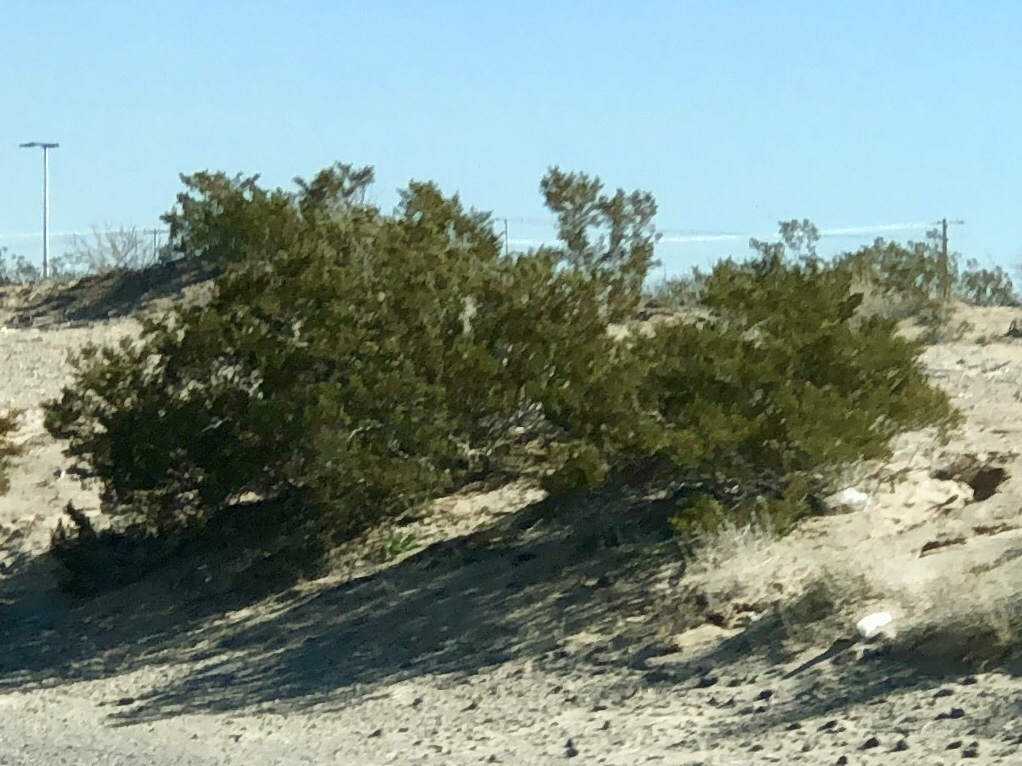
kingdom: Plantae
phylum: Tracheophyta
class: Magnoliopsida
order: Zygophyllales
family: Zygophyllaceae
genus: Larrea
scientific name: Larrea tridentata
